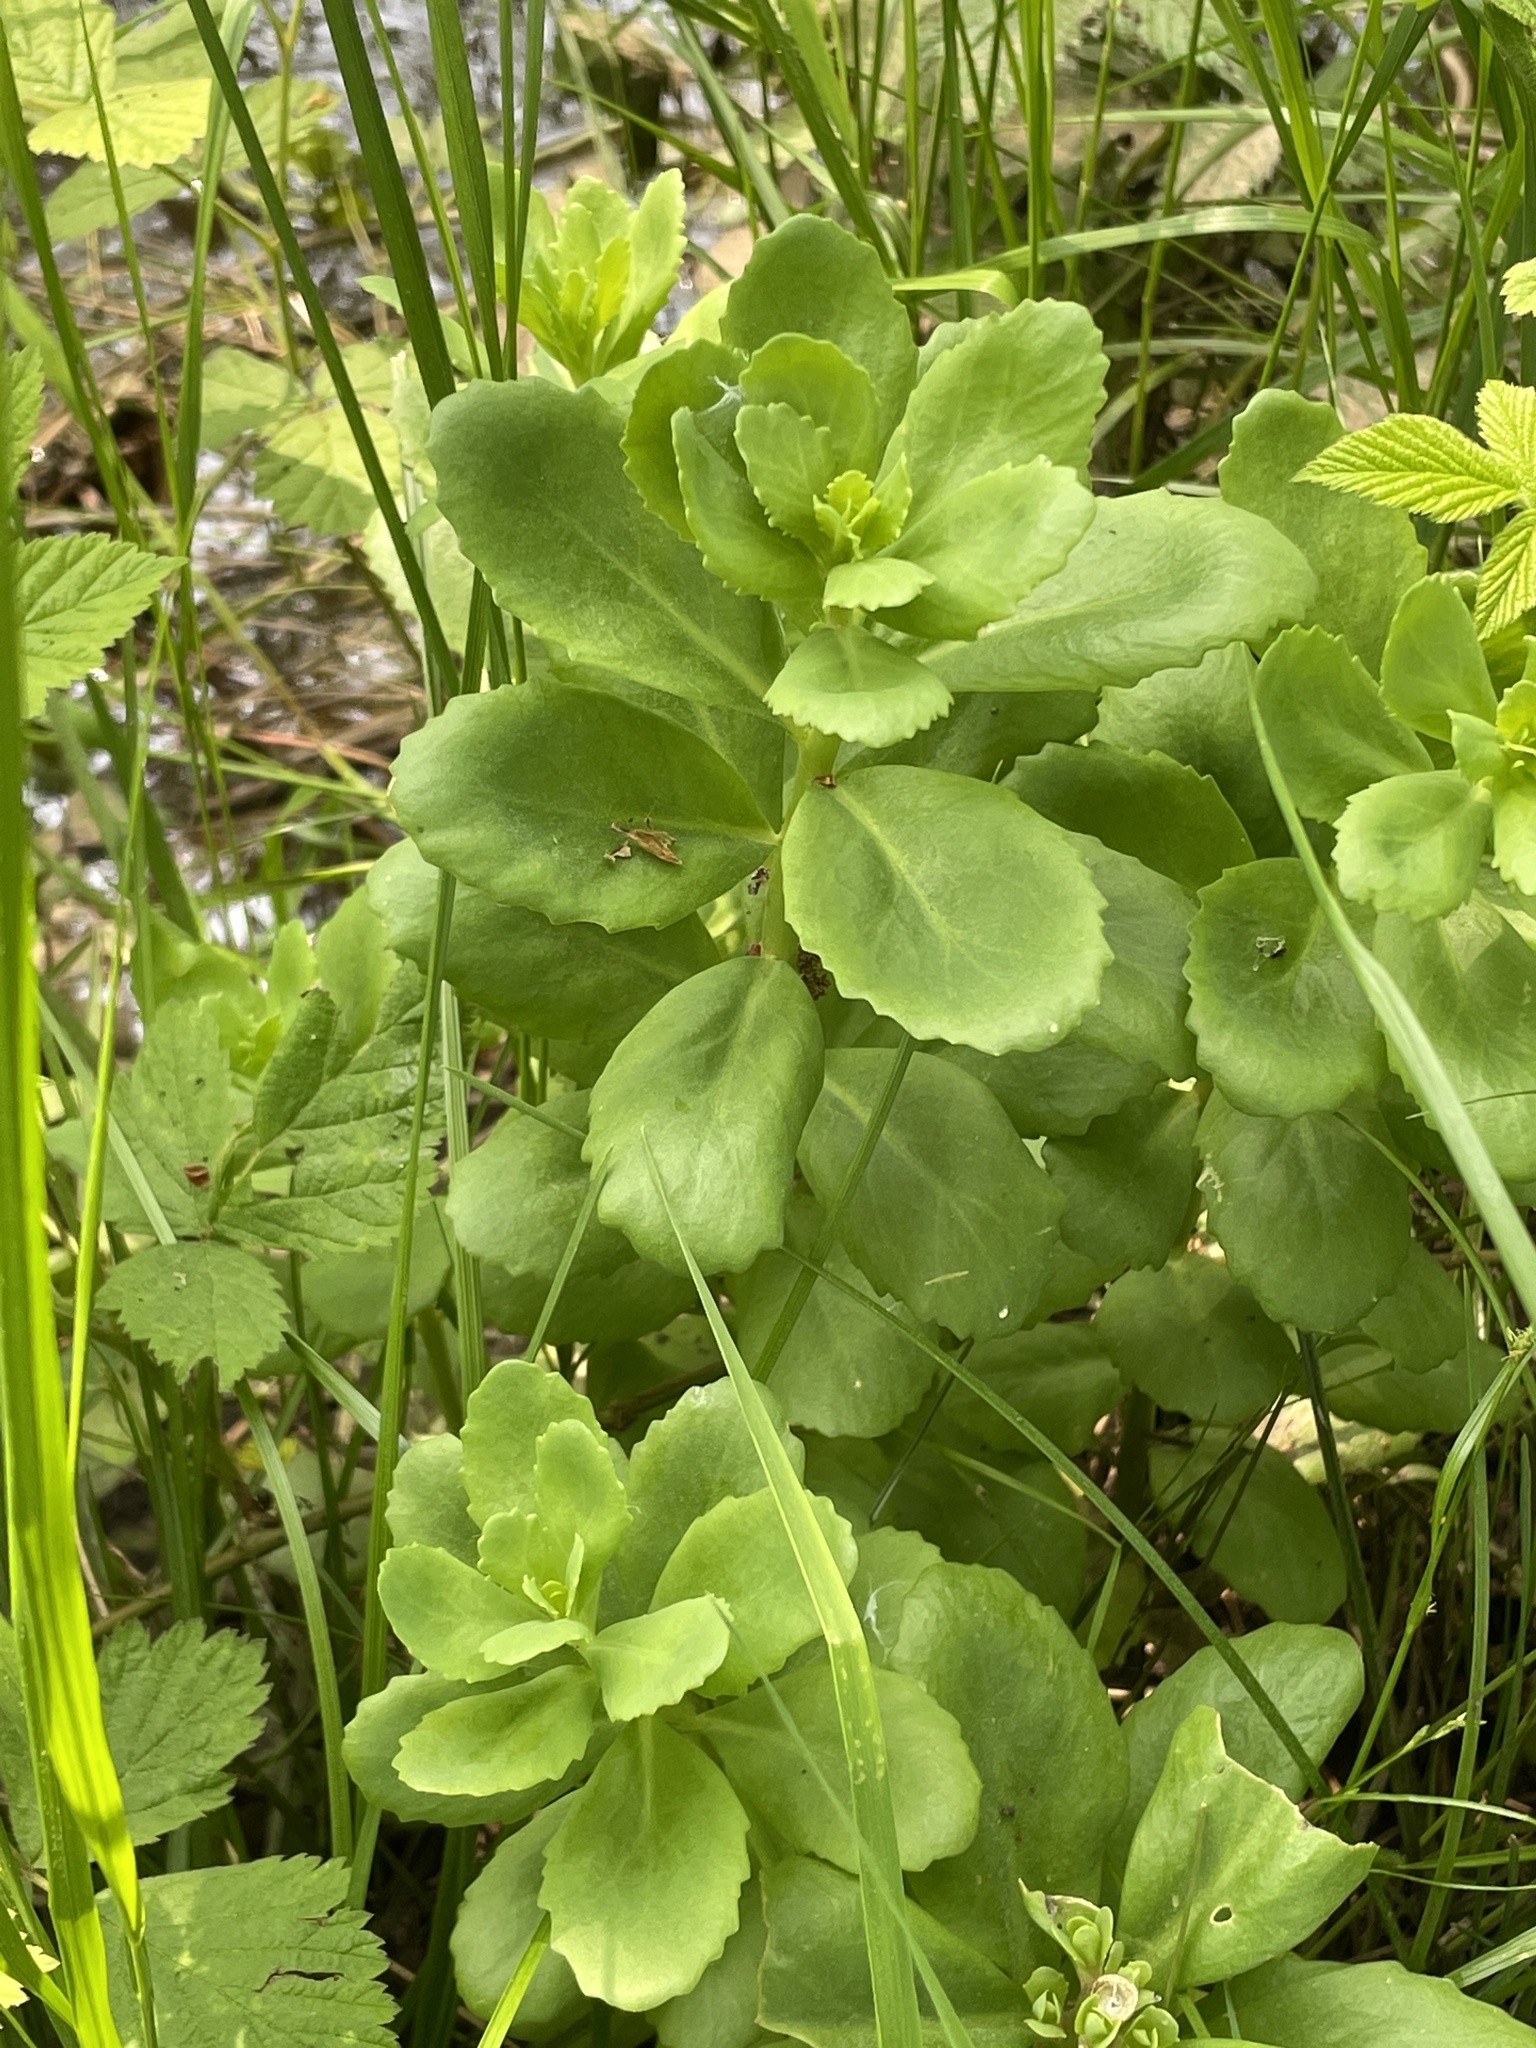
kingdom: Plantae
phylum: Tracheophyta
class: Magnoliopsida
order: Saxifragales
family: Crassulaceae
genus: Hylotelephium
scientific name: Hylotelephium telephium
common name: Live-forever
